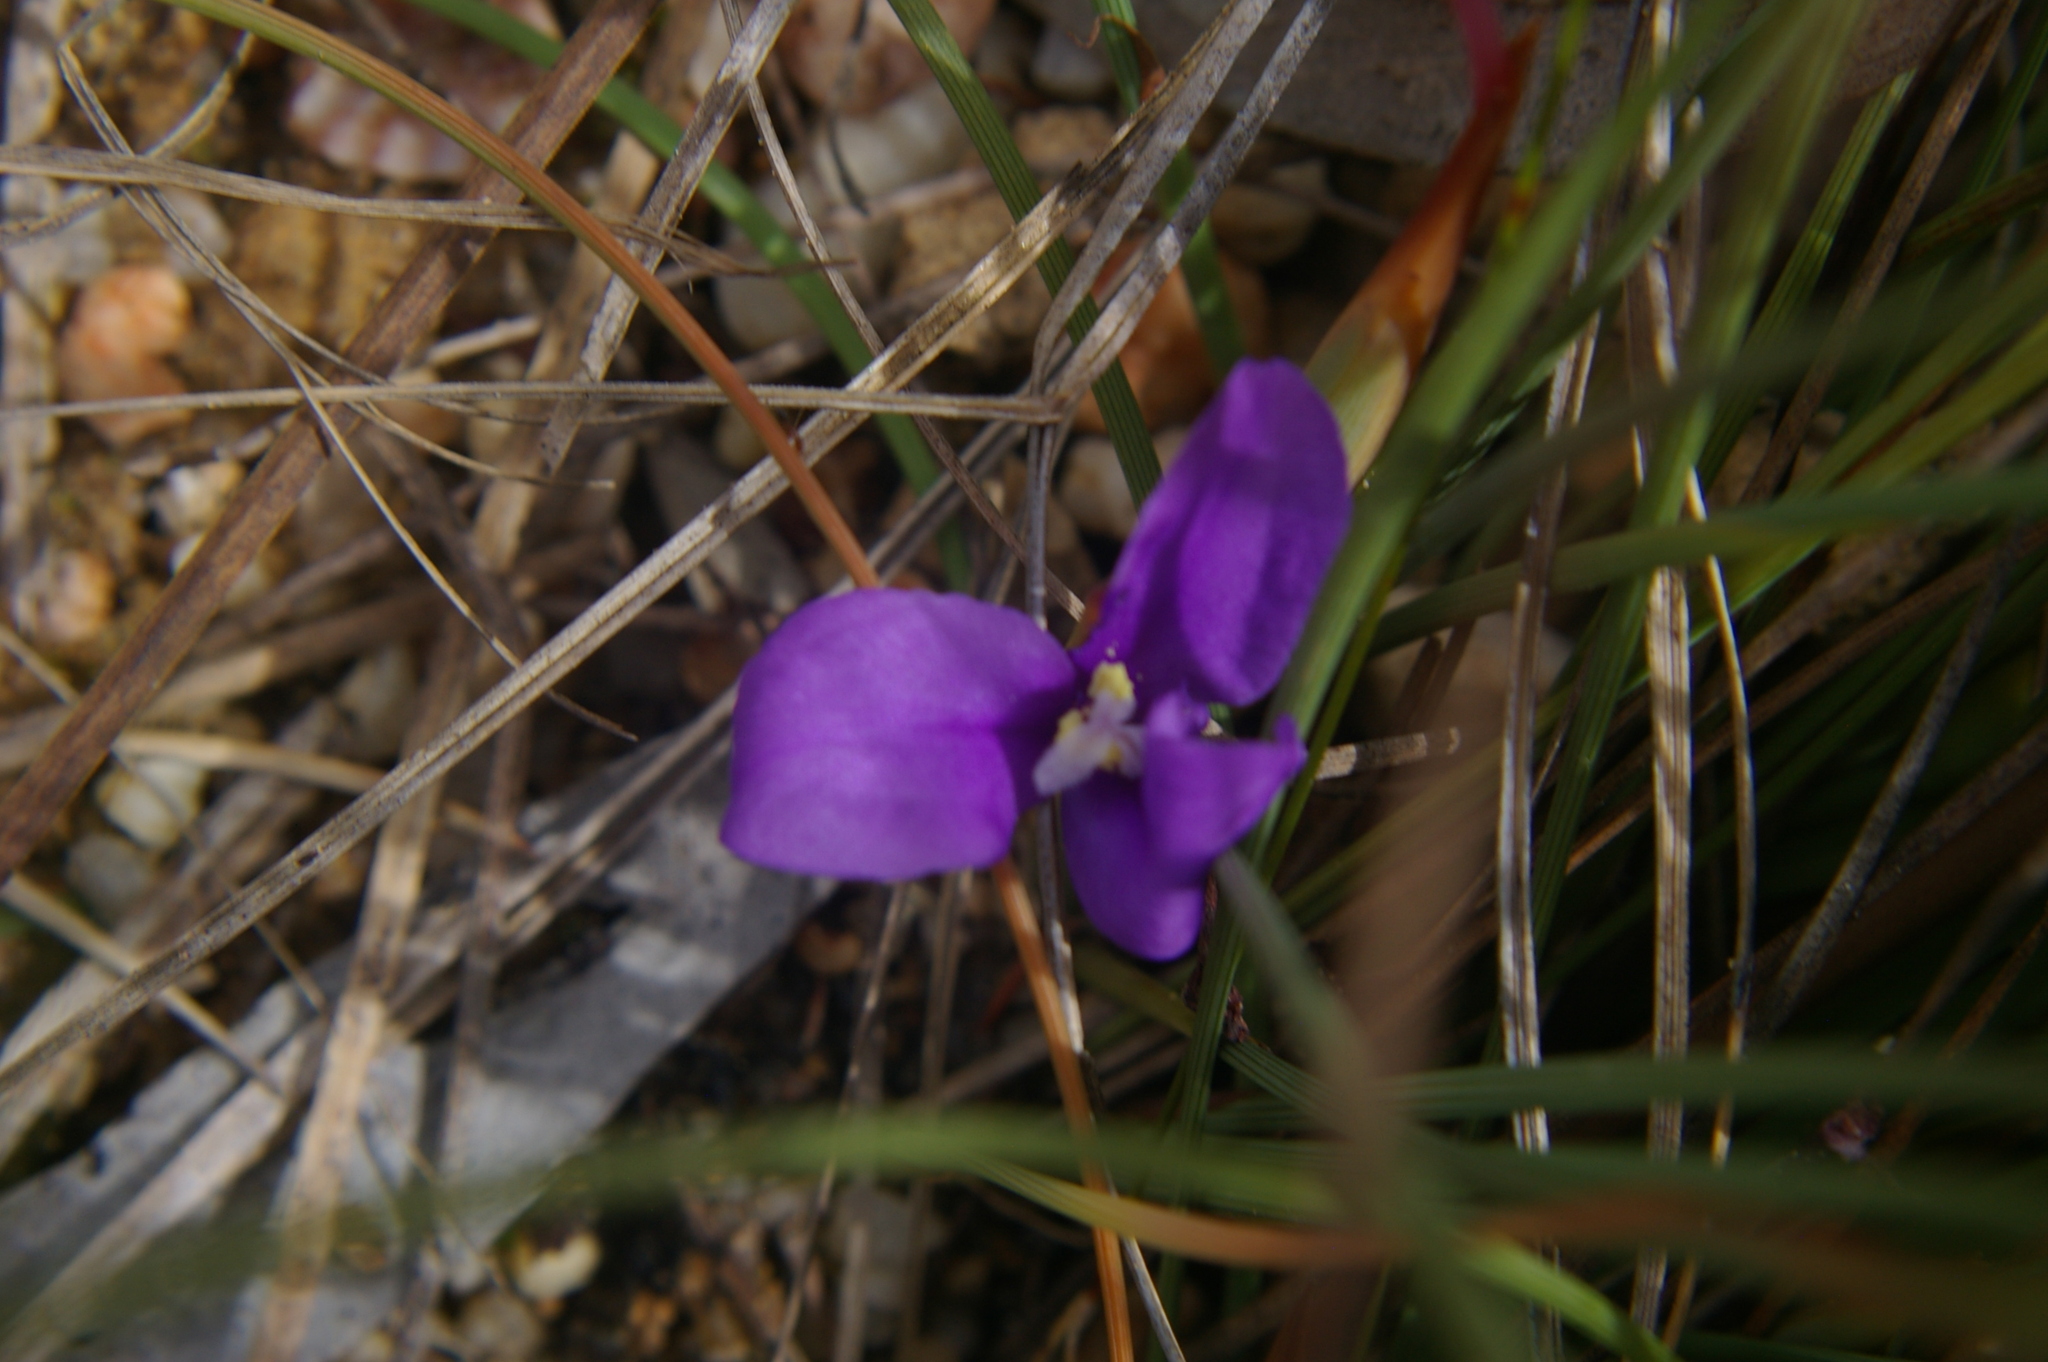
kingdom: Plantae
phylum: Tracheophyta
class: Liliopsida
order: Asparagales
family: Iridaceae
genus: Patersonia
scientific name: Patersonia fragilis
